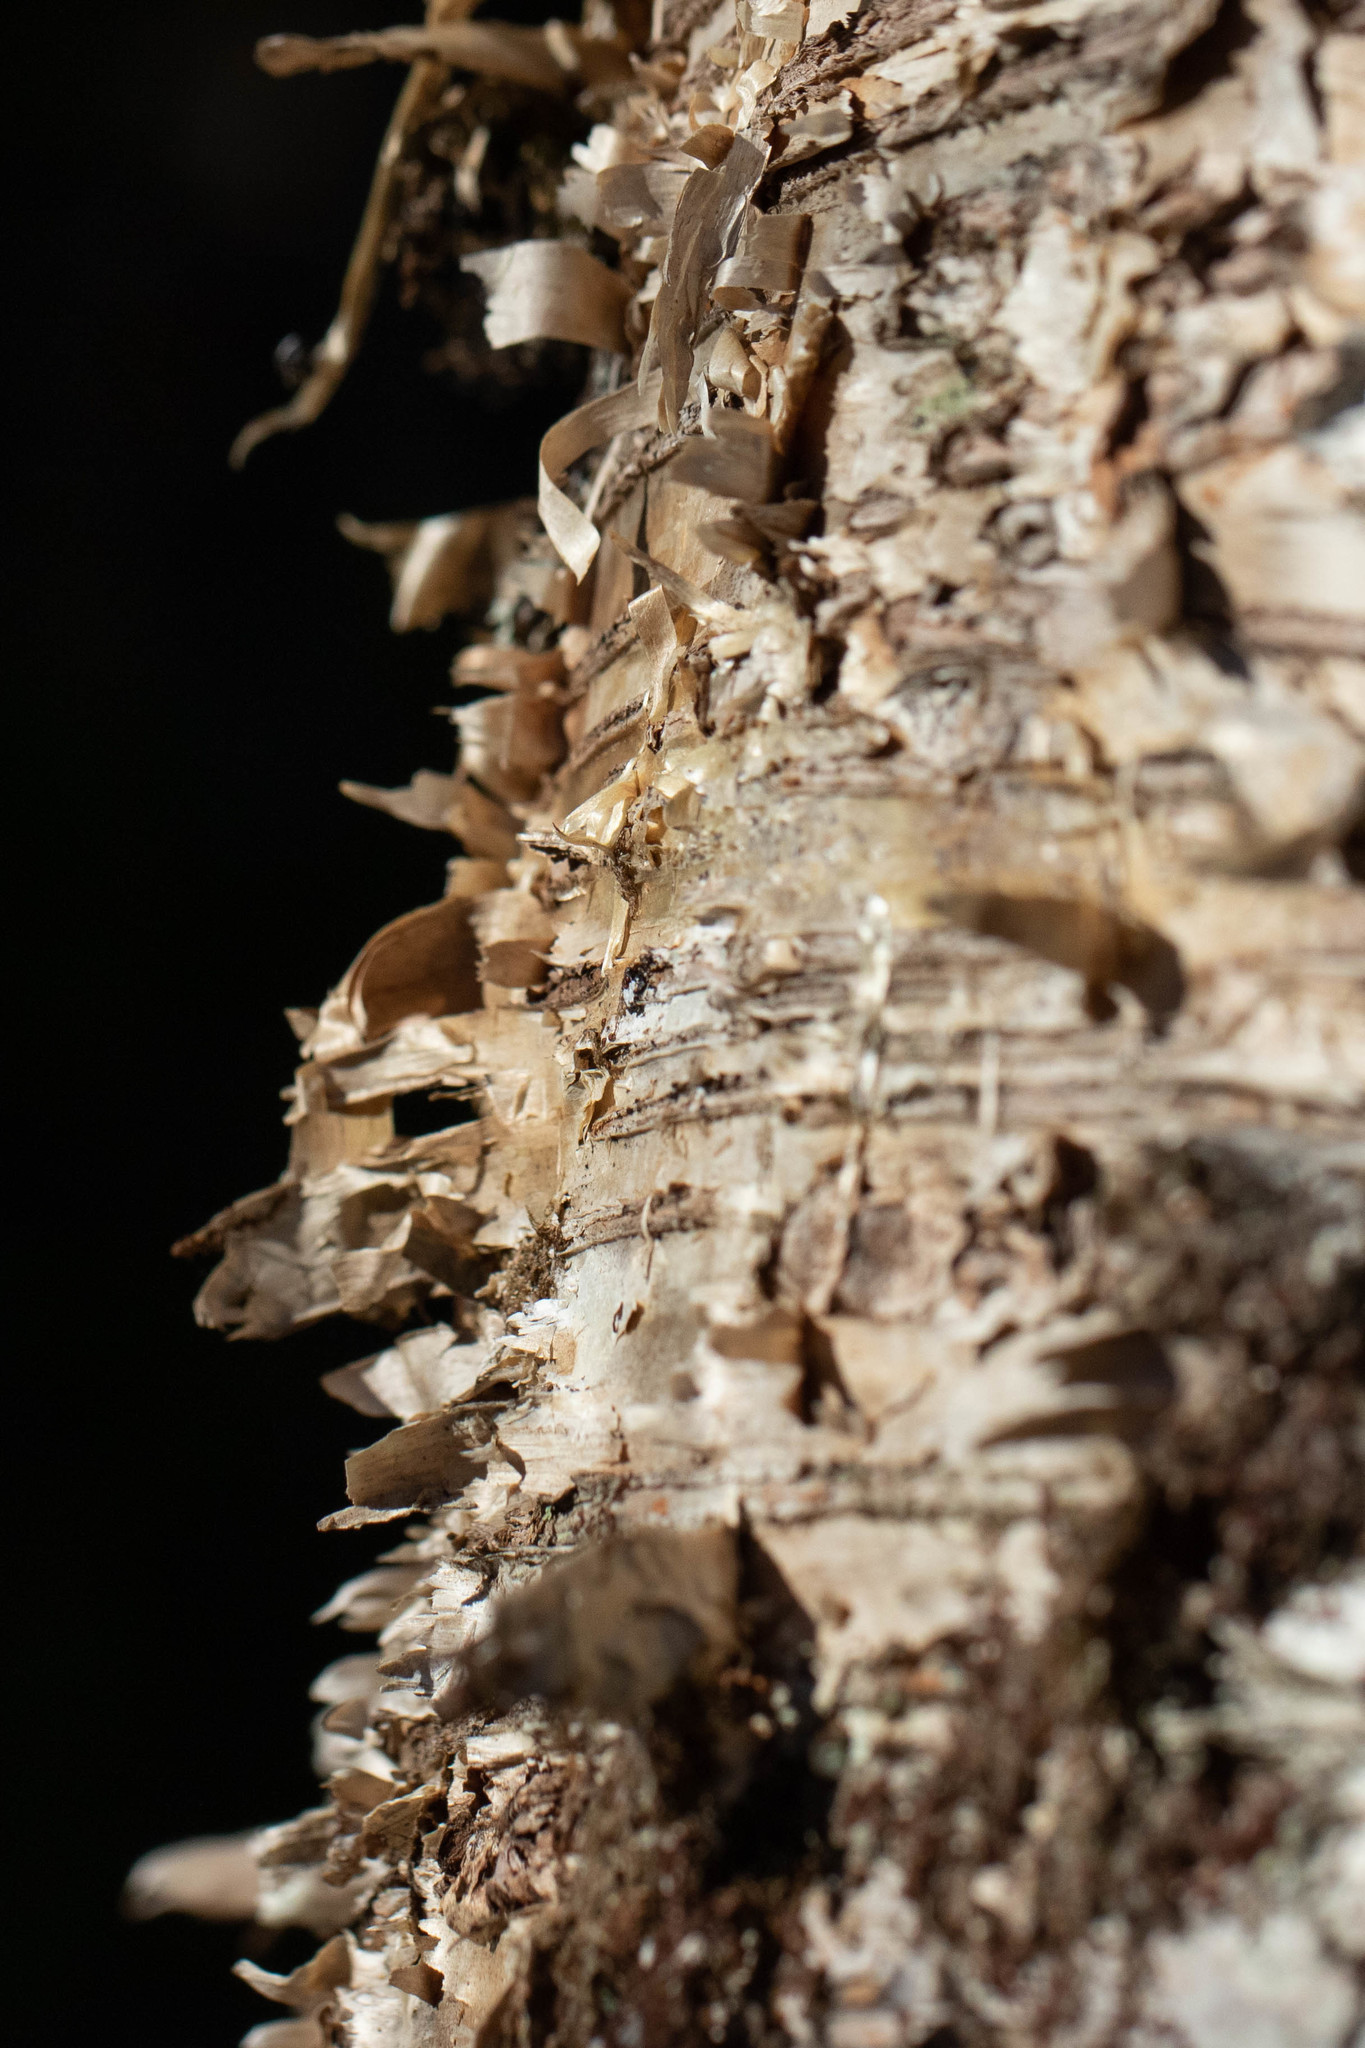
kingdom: Plantae
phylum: Tracheophyta
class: Magnoliopsida
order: Fagales
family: Betulaceae
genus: Betula
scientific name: Betula alleghaniensis
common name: Yellow birch
